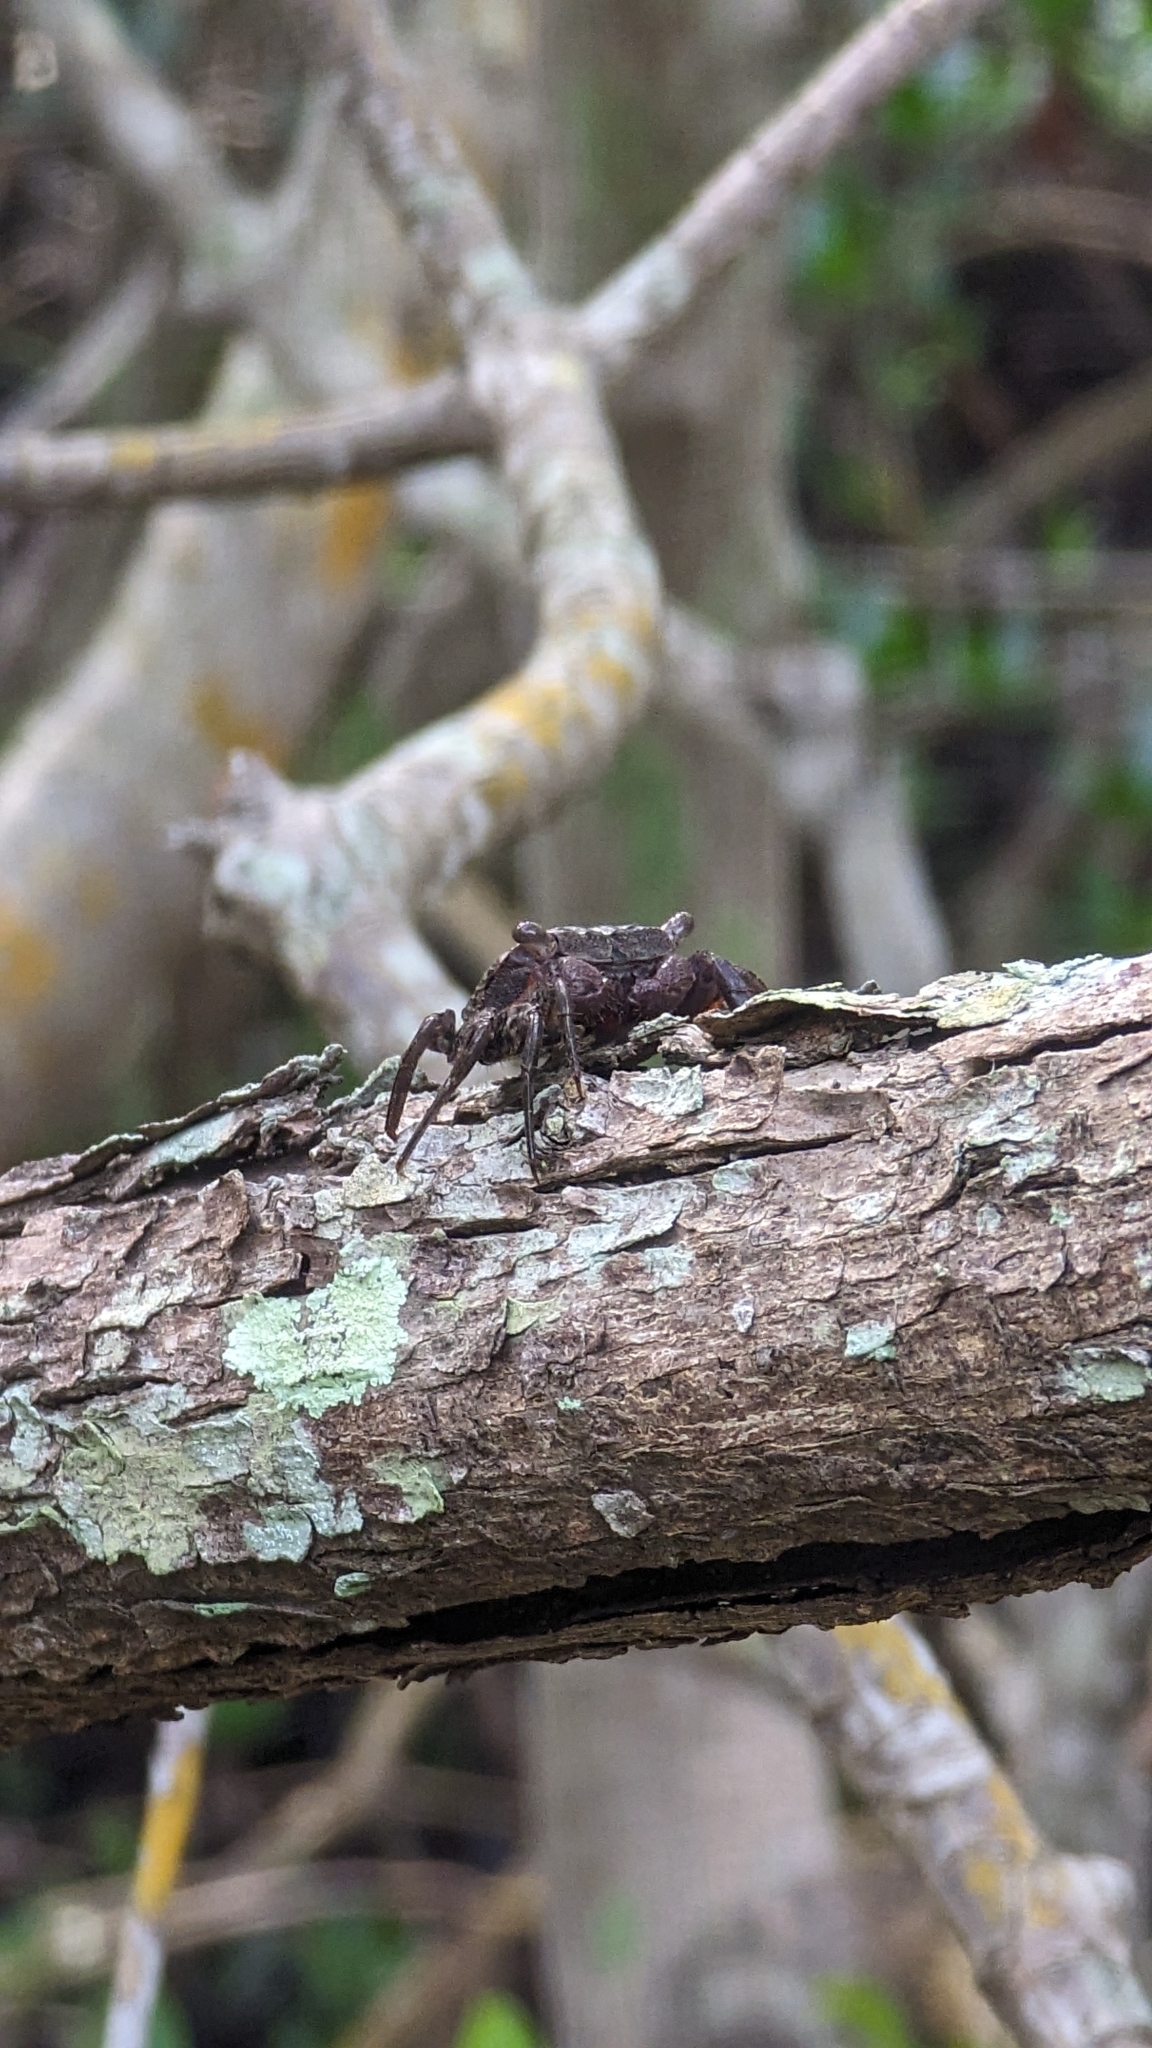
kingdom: Animalia
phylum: Arthropoda
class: Malacostraca
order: Decapoda
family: Sesarmidae
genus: Aratus
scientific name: Aratus pisonii
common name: Mangrove crab
